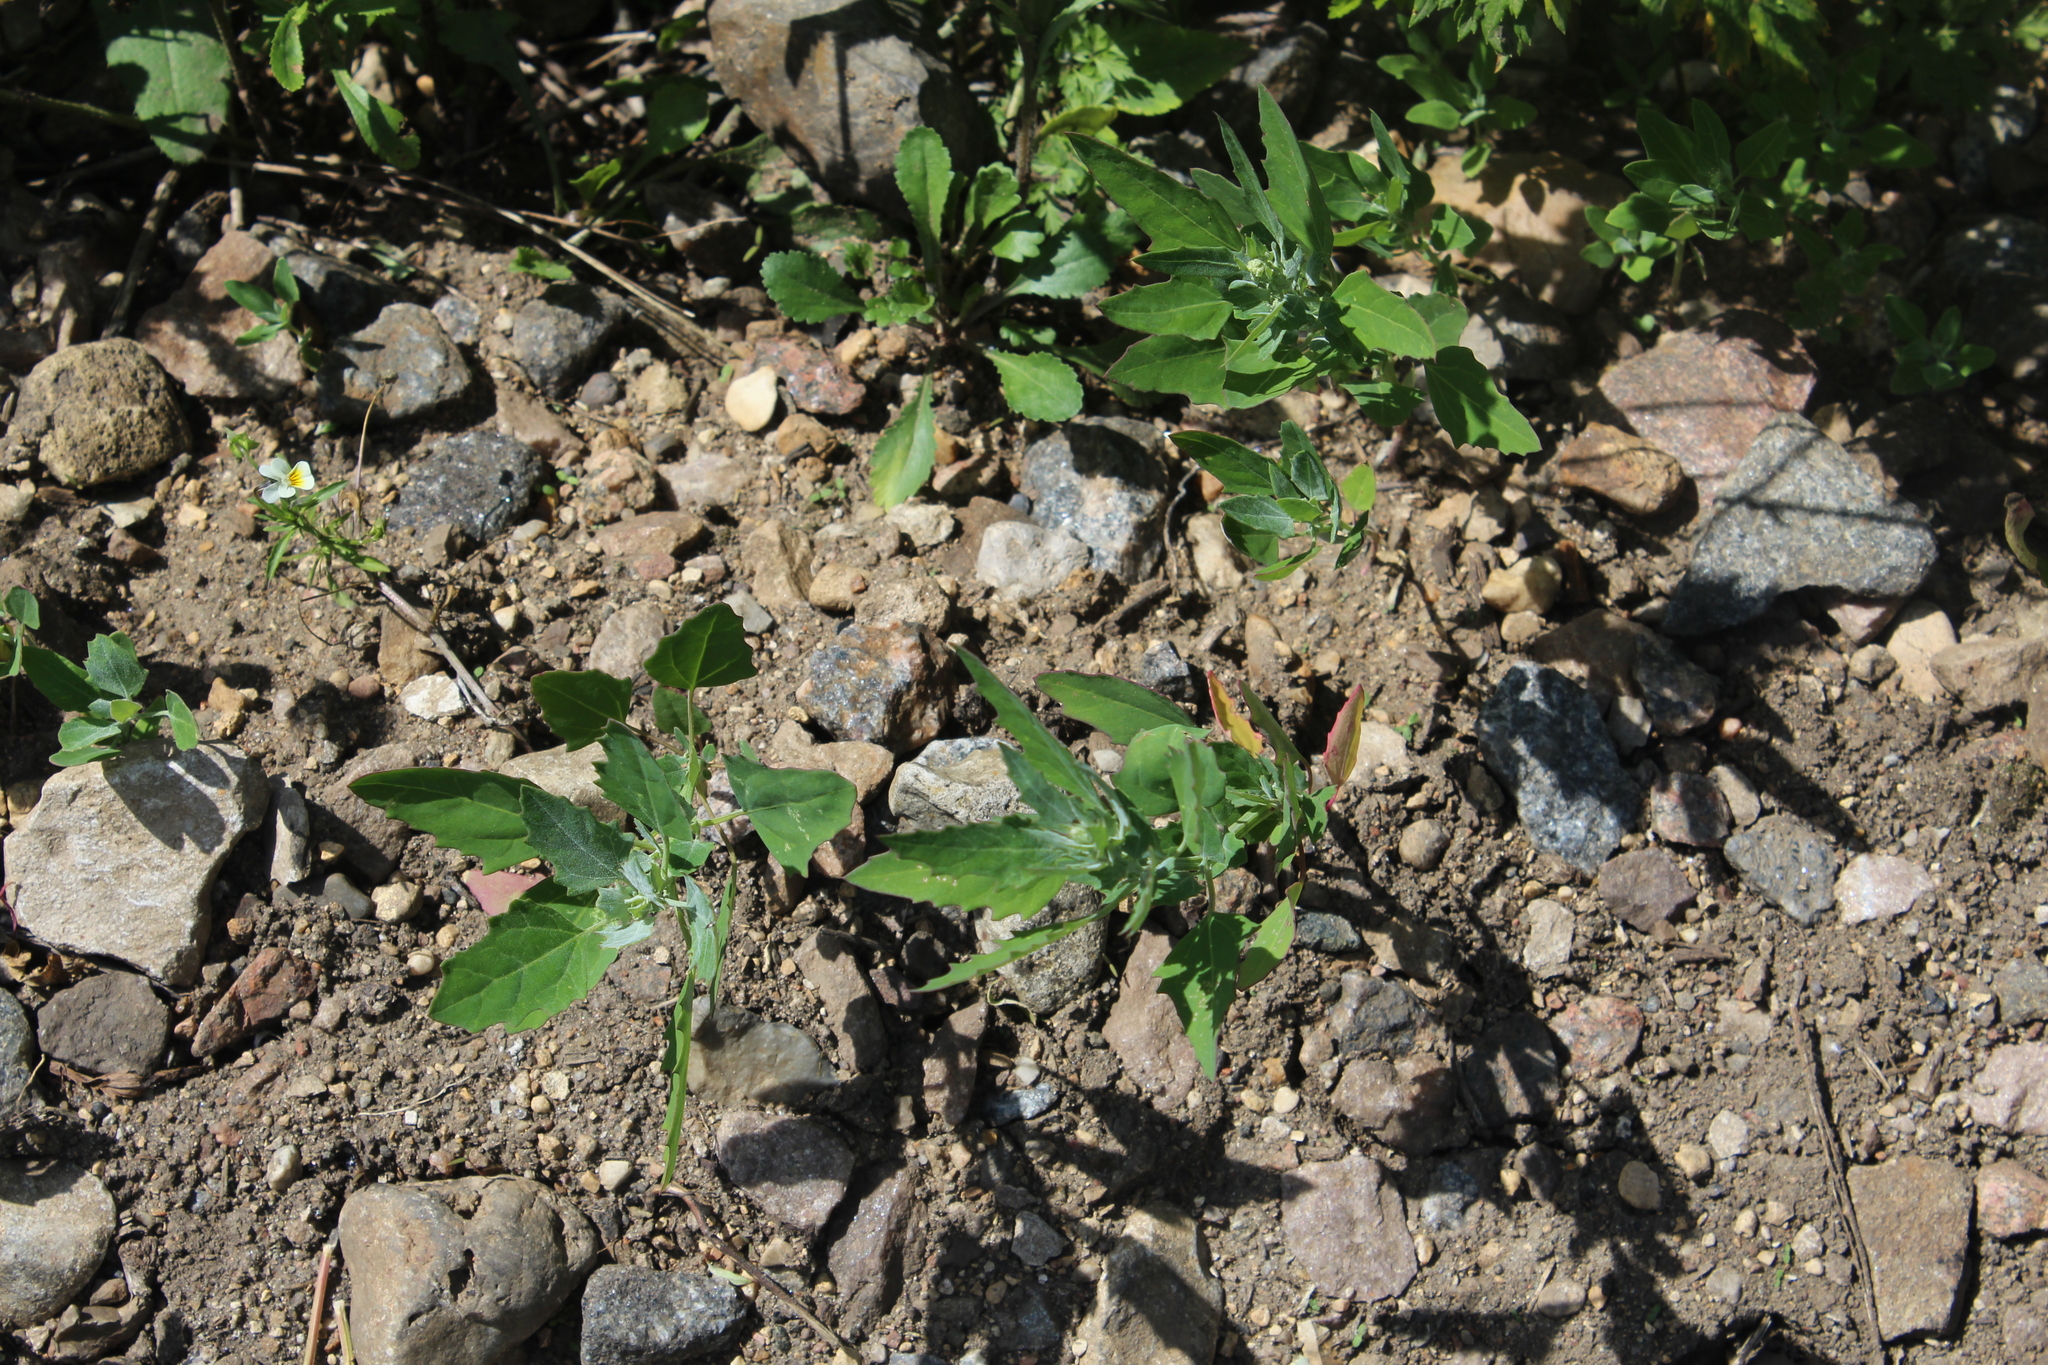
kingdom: Plantae
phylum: Tracheophyta
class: Magnoliopsida
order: Caryophyllales
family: Amaranthaceae
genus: Chenopodium
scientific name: Chenopodium album
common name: Fat-hen
